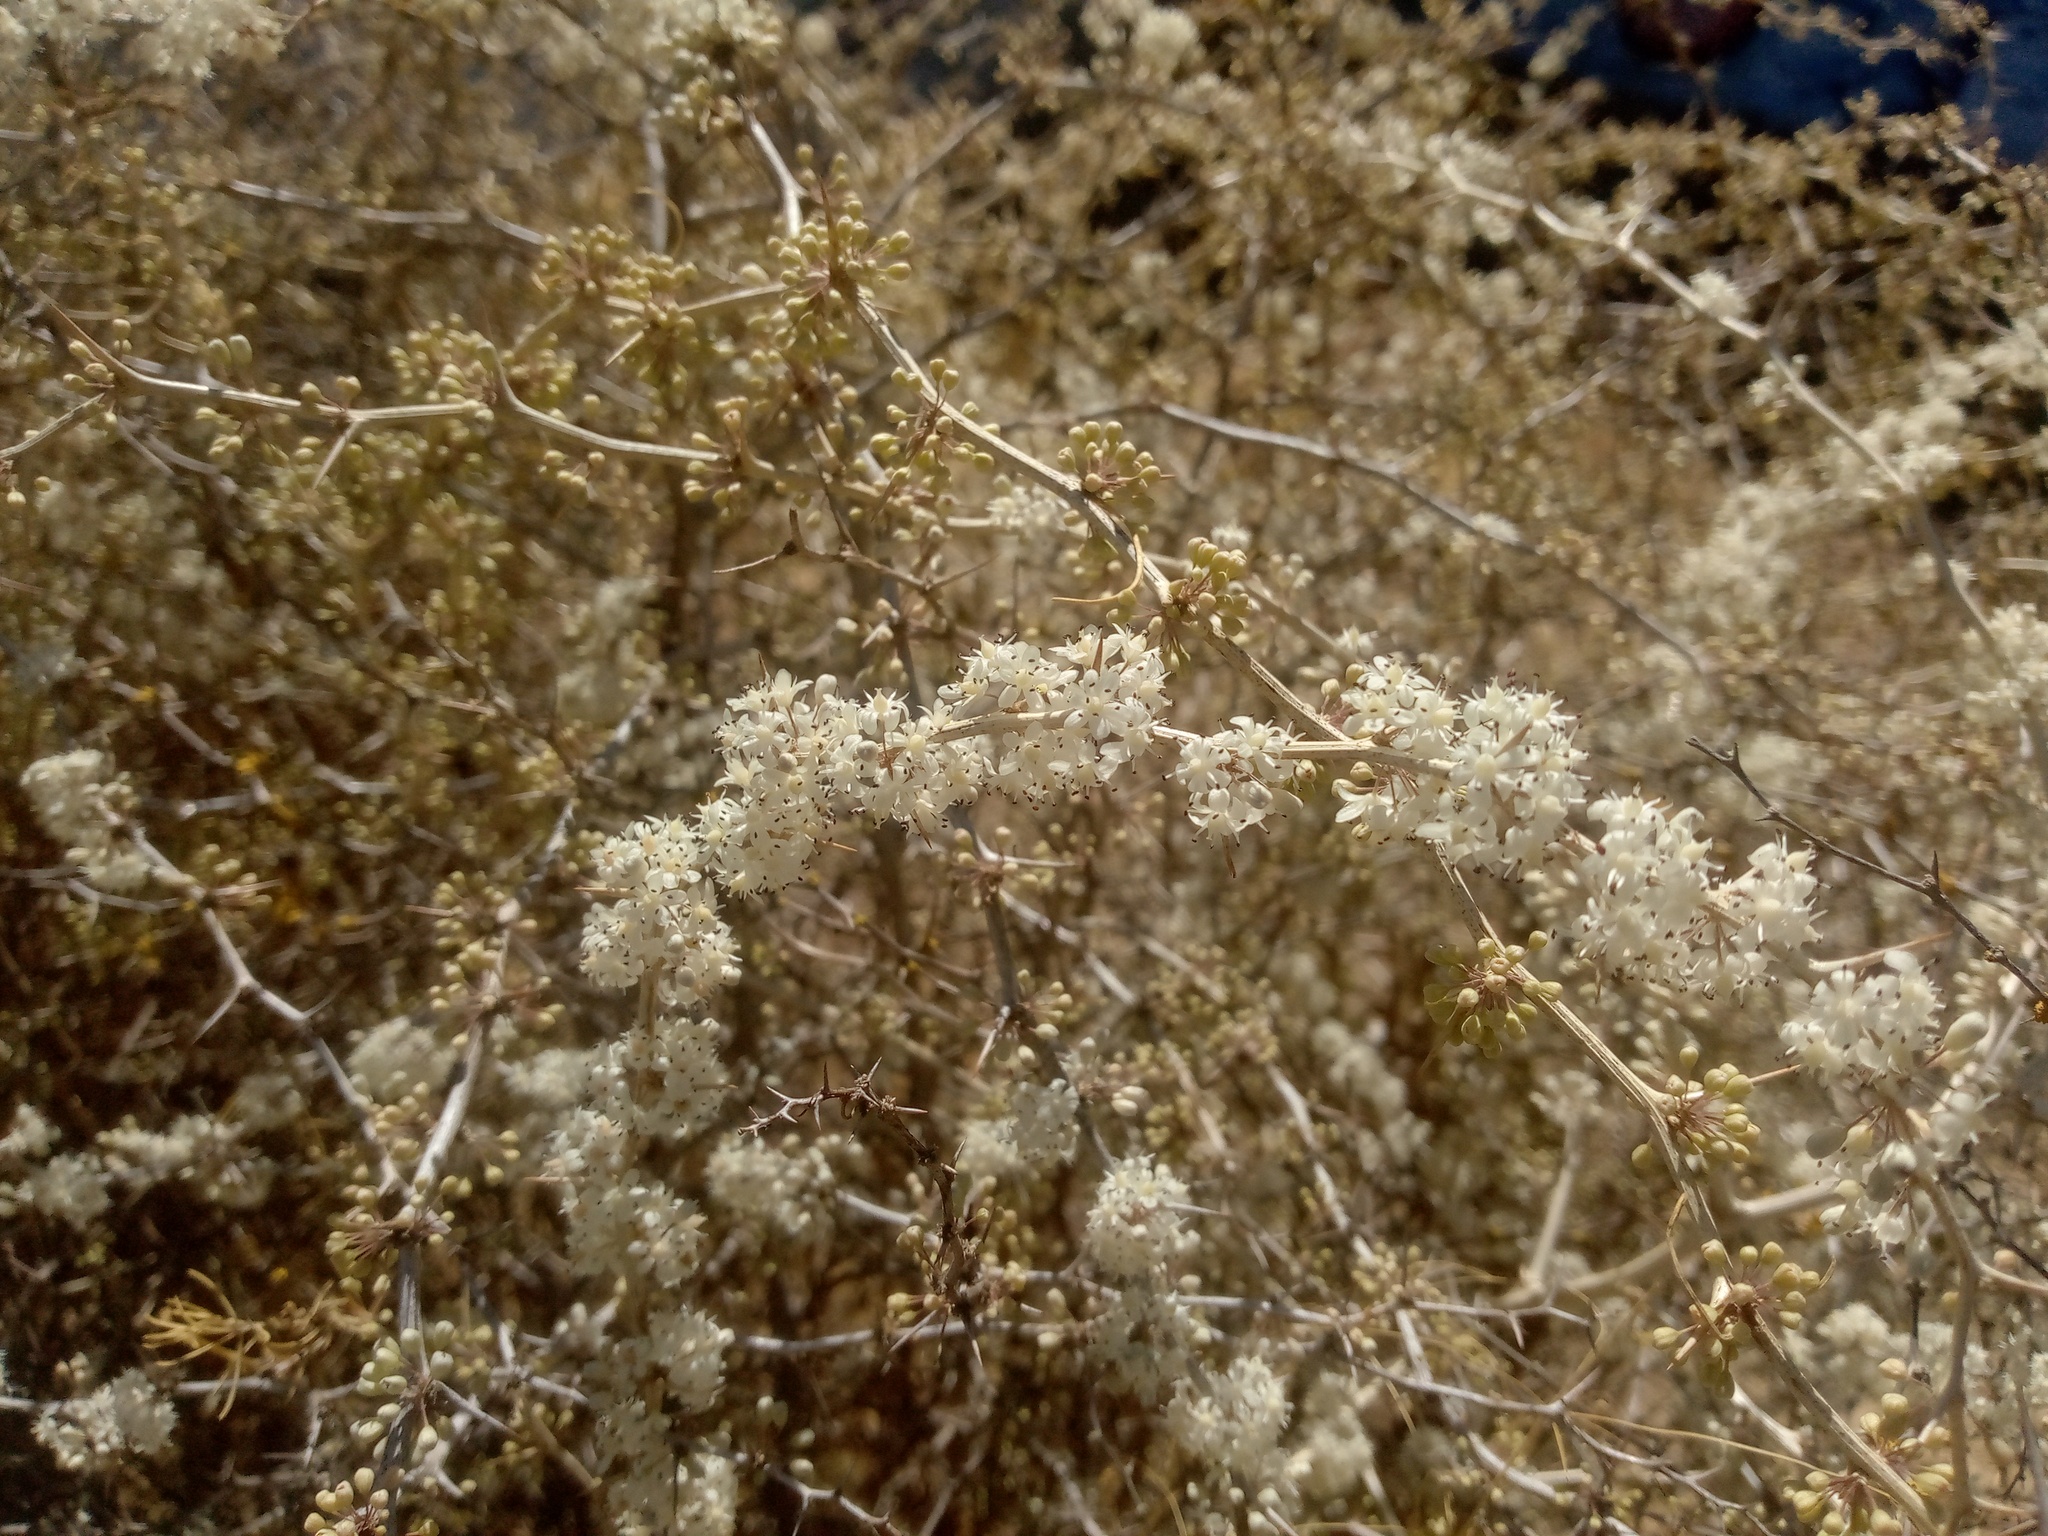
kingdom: Plantae
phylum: Tracheophyta
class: Liliopsida
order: Asparagales
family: Asparagaceae
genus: Asparagus
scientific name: Asparagus albus
